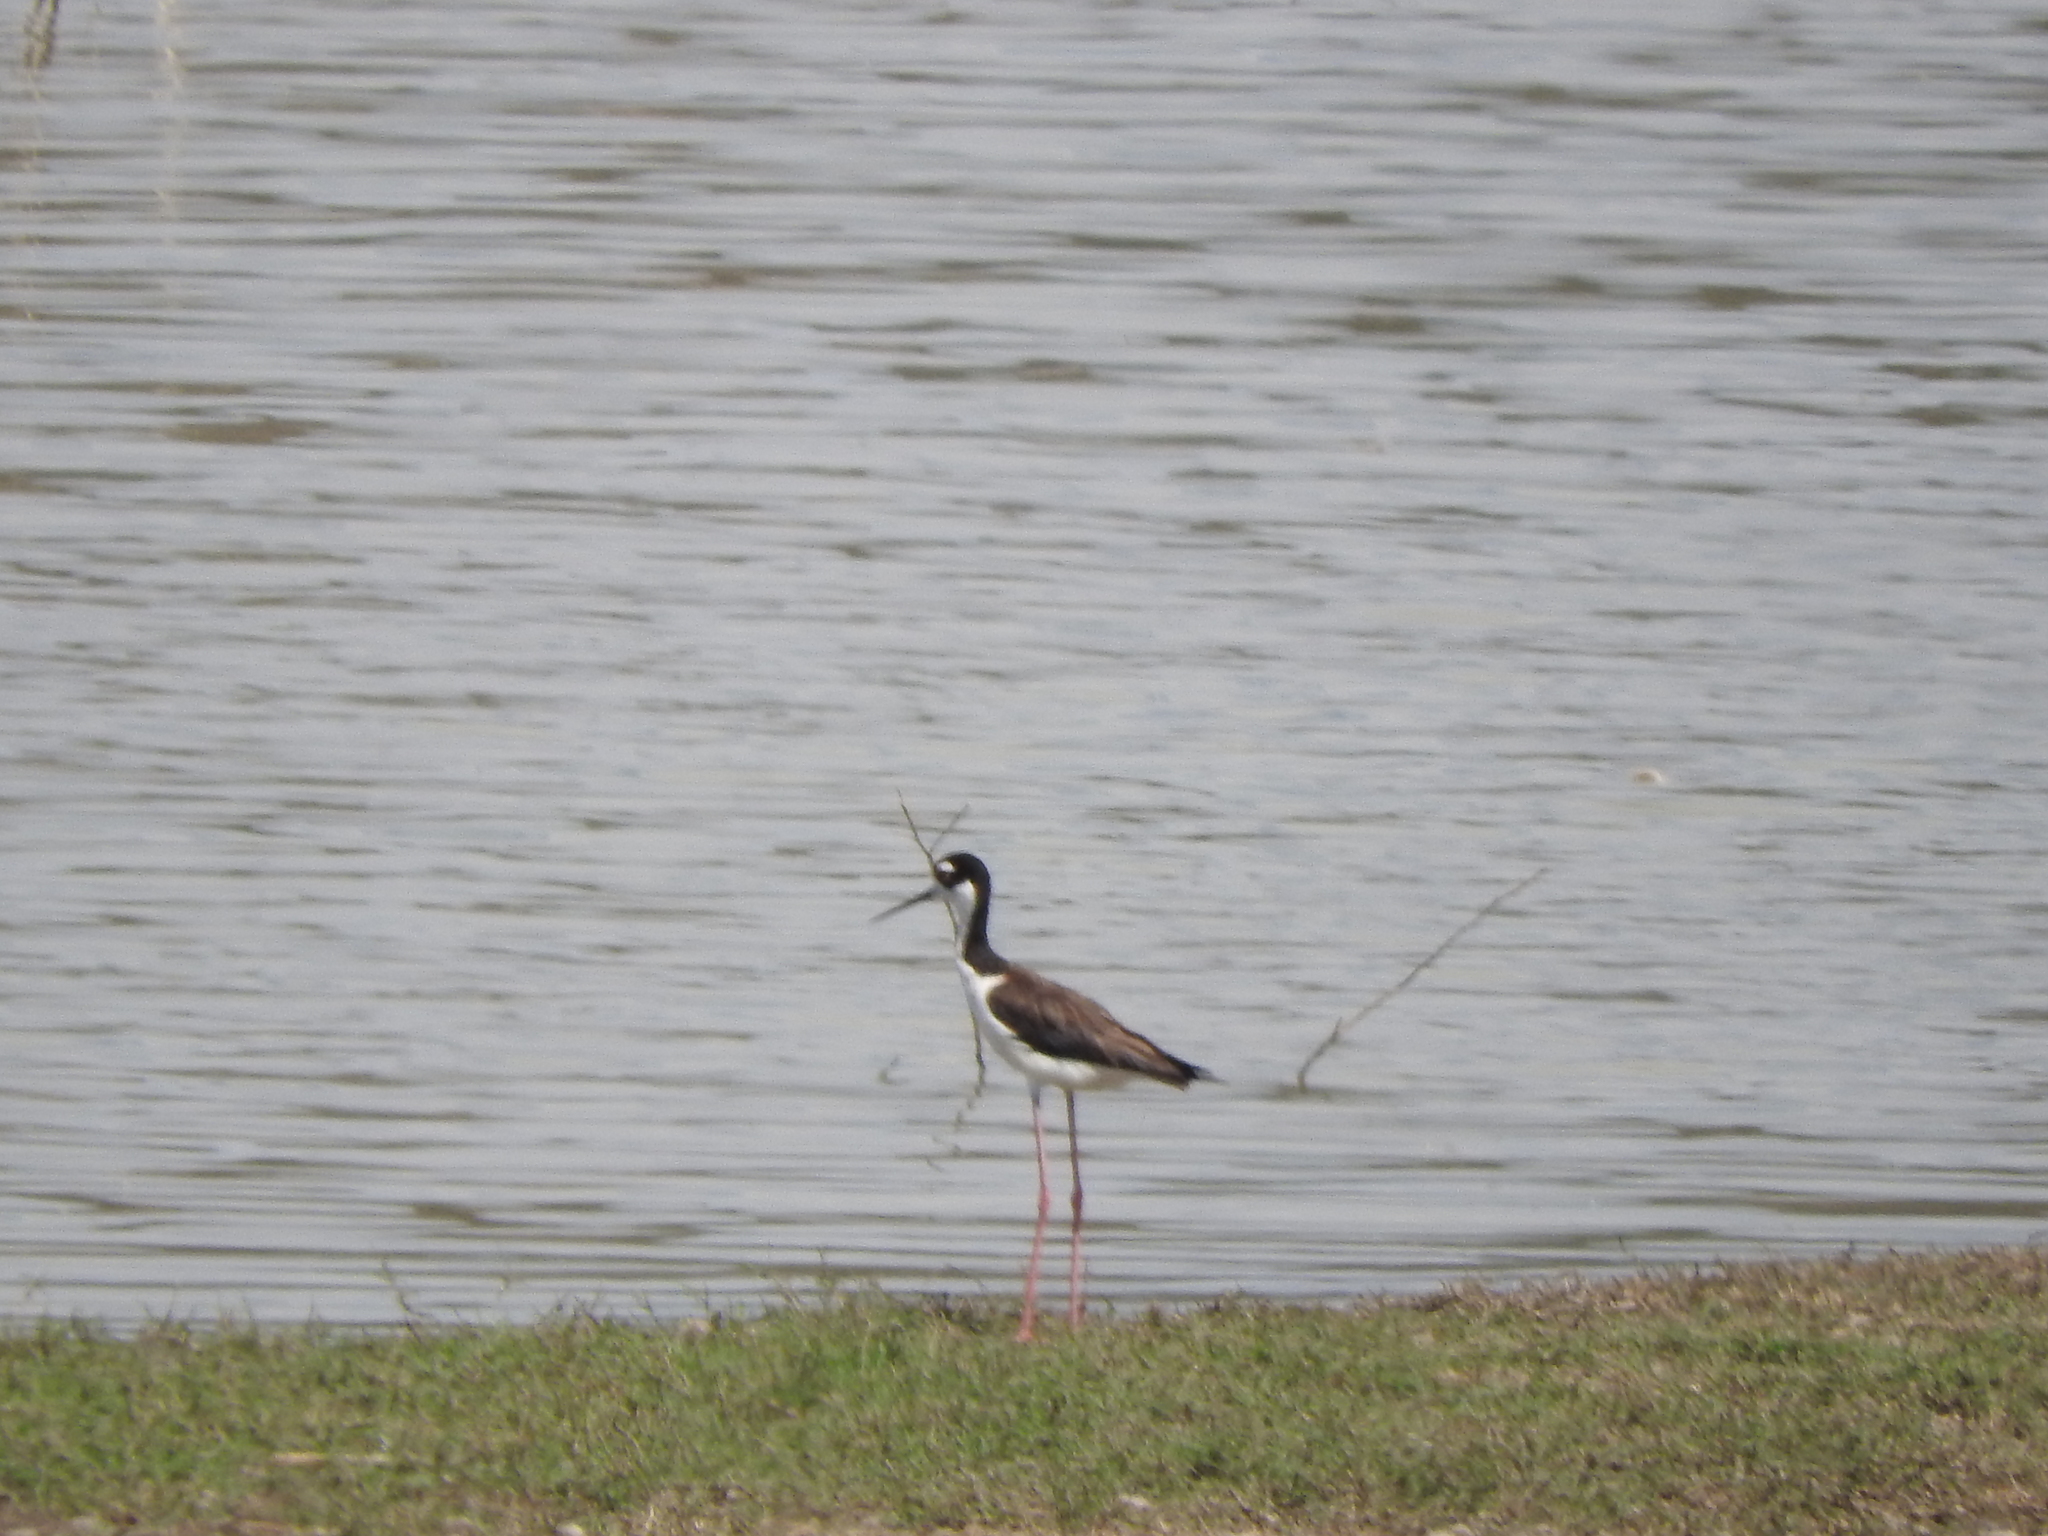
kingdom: Animalia
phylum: Chordata
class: Aves
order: Charadriiformes
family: Recurvirostridae
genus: Himantopus
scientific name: Himantopus mexicanus
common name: Black-necked stilt
